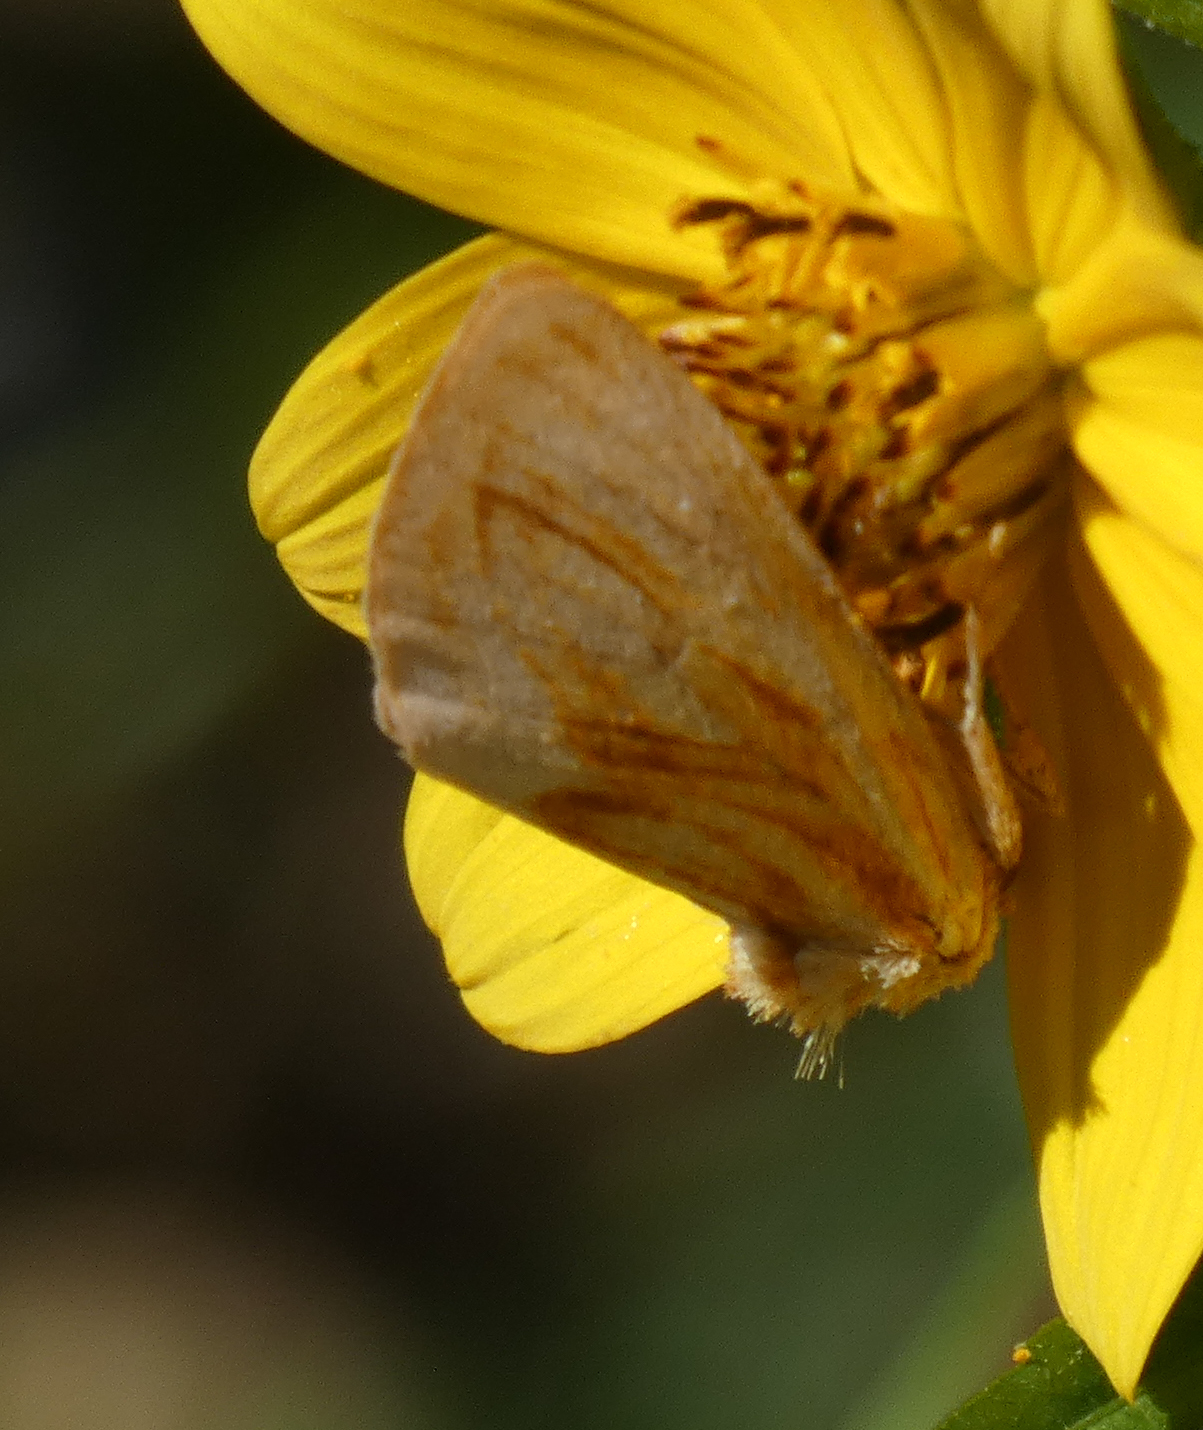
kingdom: Animalia
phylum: Arthropoda
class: Insecta
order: Lepidoptera
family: Noctuidae
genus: Cirrhophanus
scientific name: Cirrhophanus triangulifer
